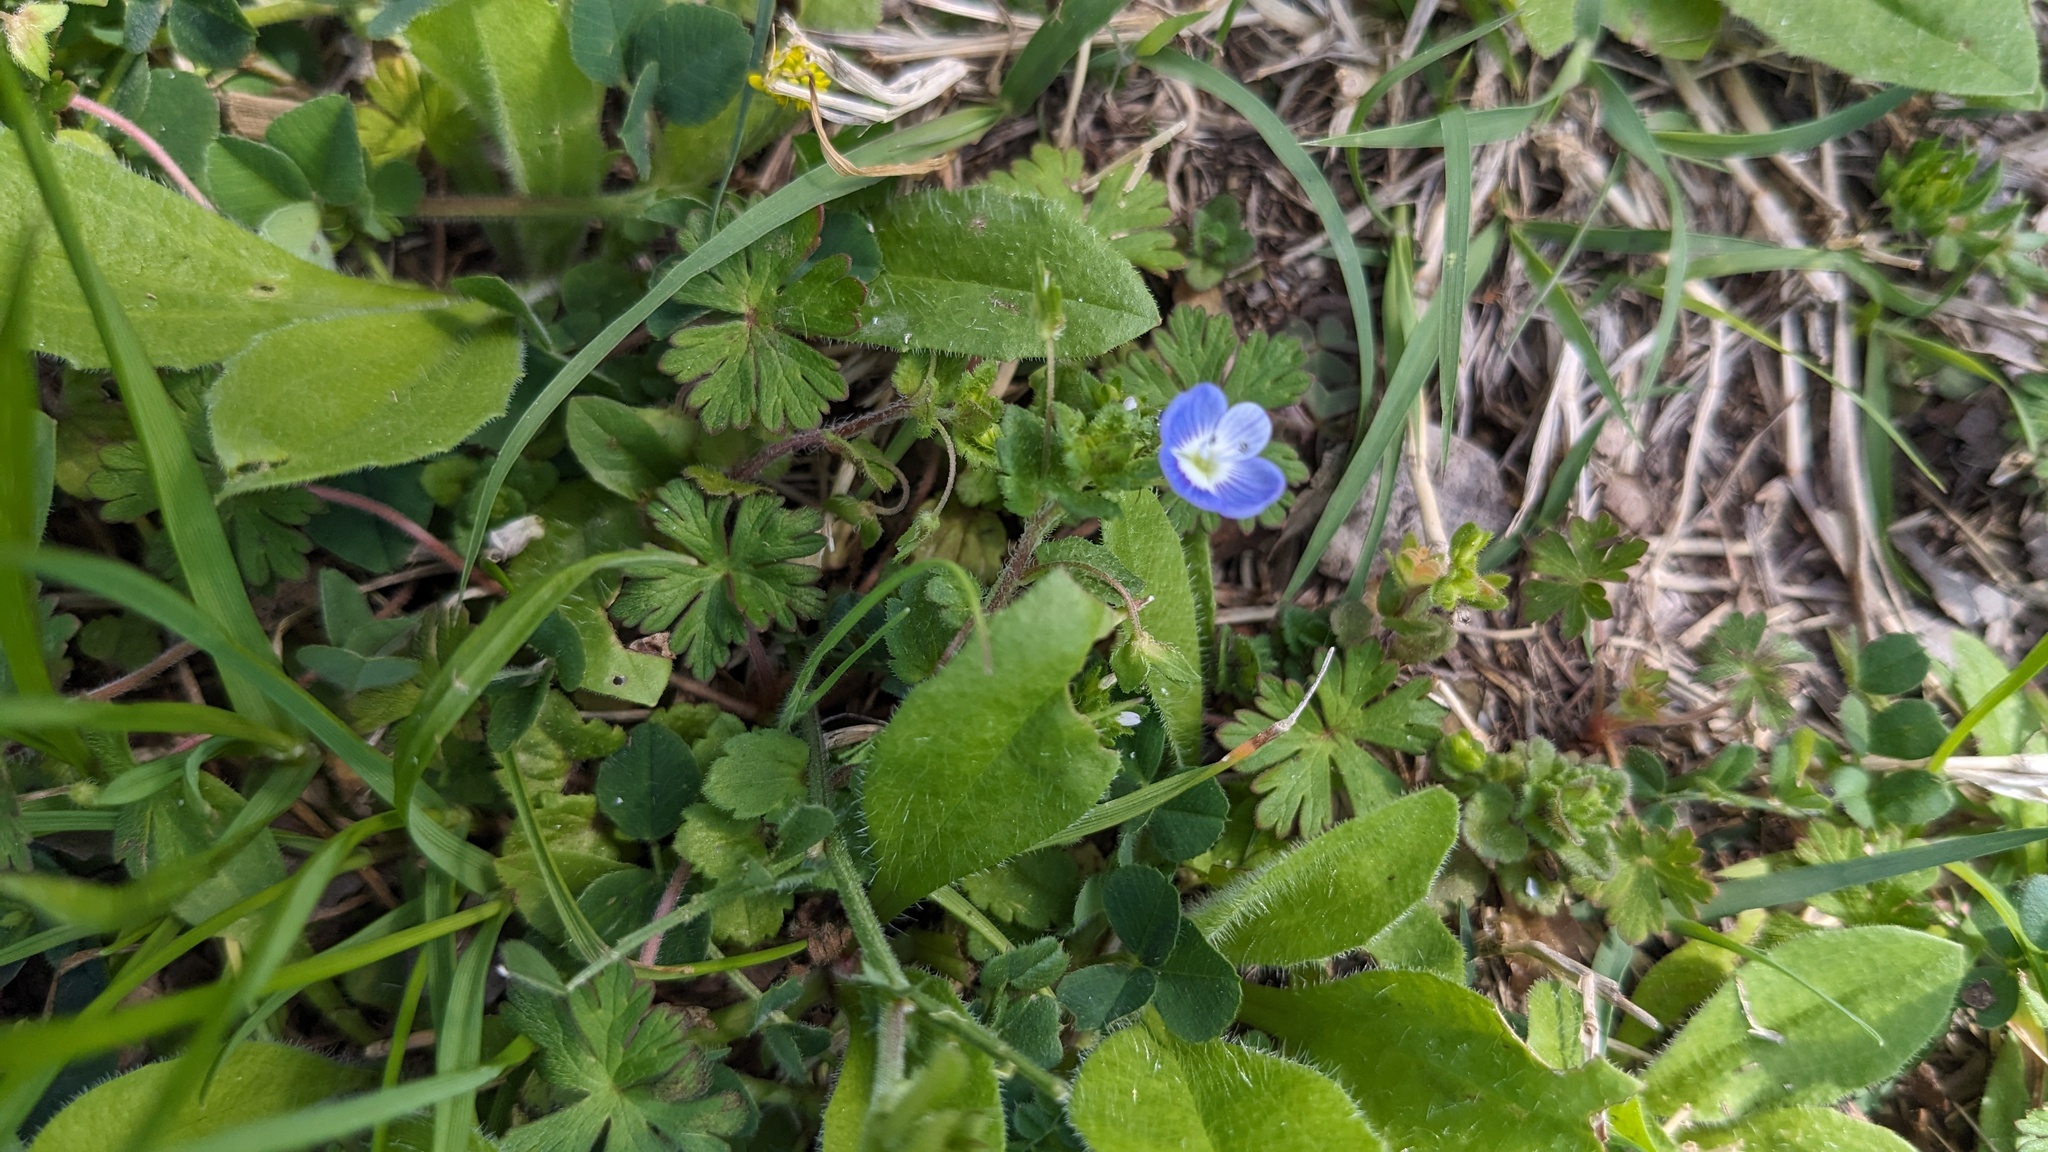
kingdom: Plantae
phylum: Tracheophyta
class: Magnoliopsida
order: Lamiales
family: Plantaginaceae
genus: Veronica
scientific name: Veronica persica
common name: Common field-speedwell
